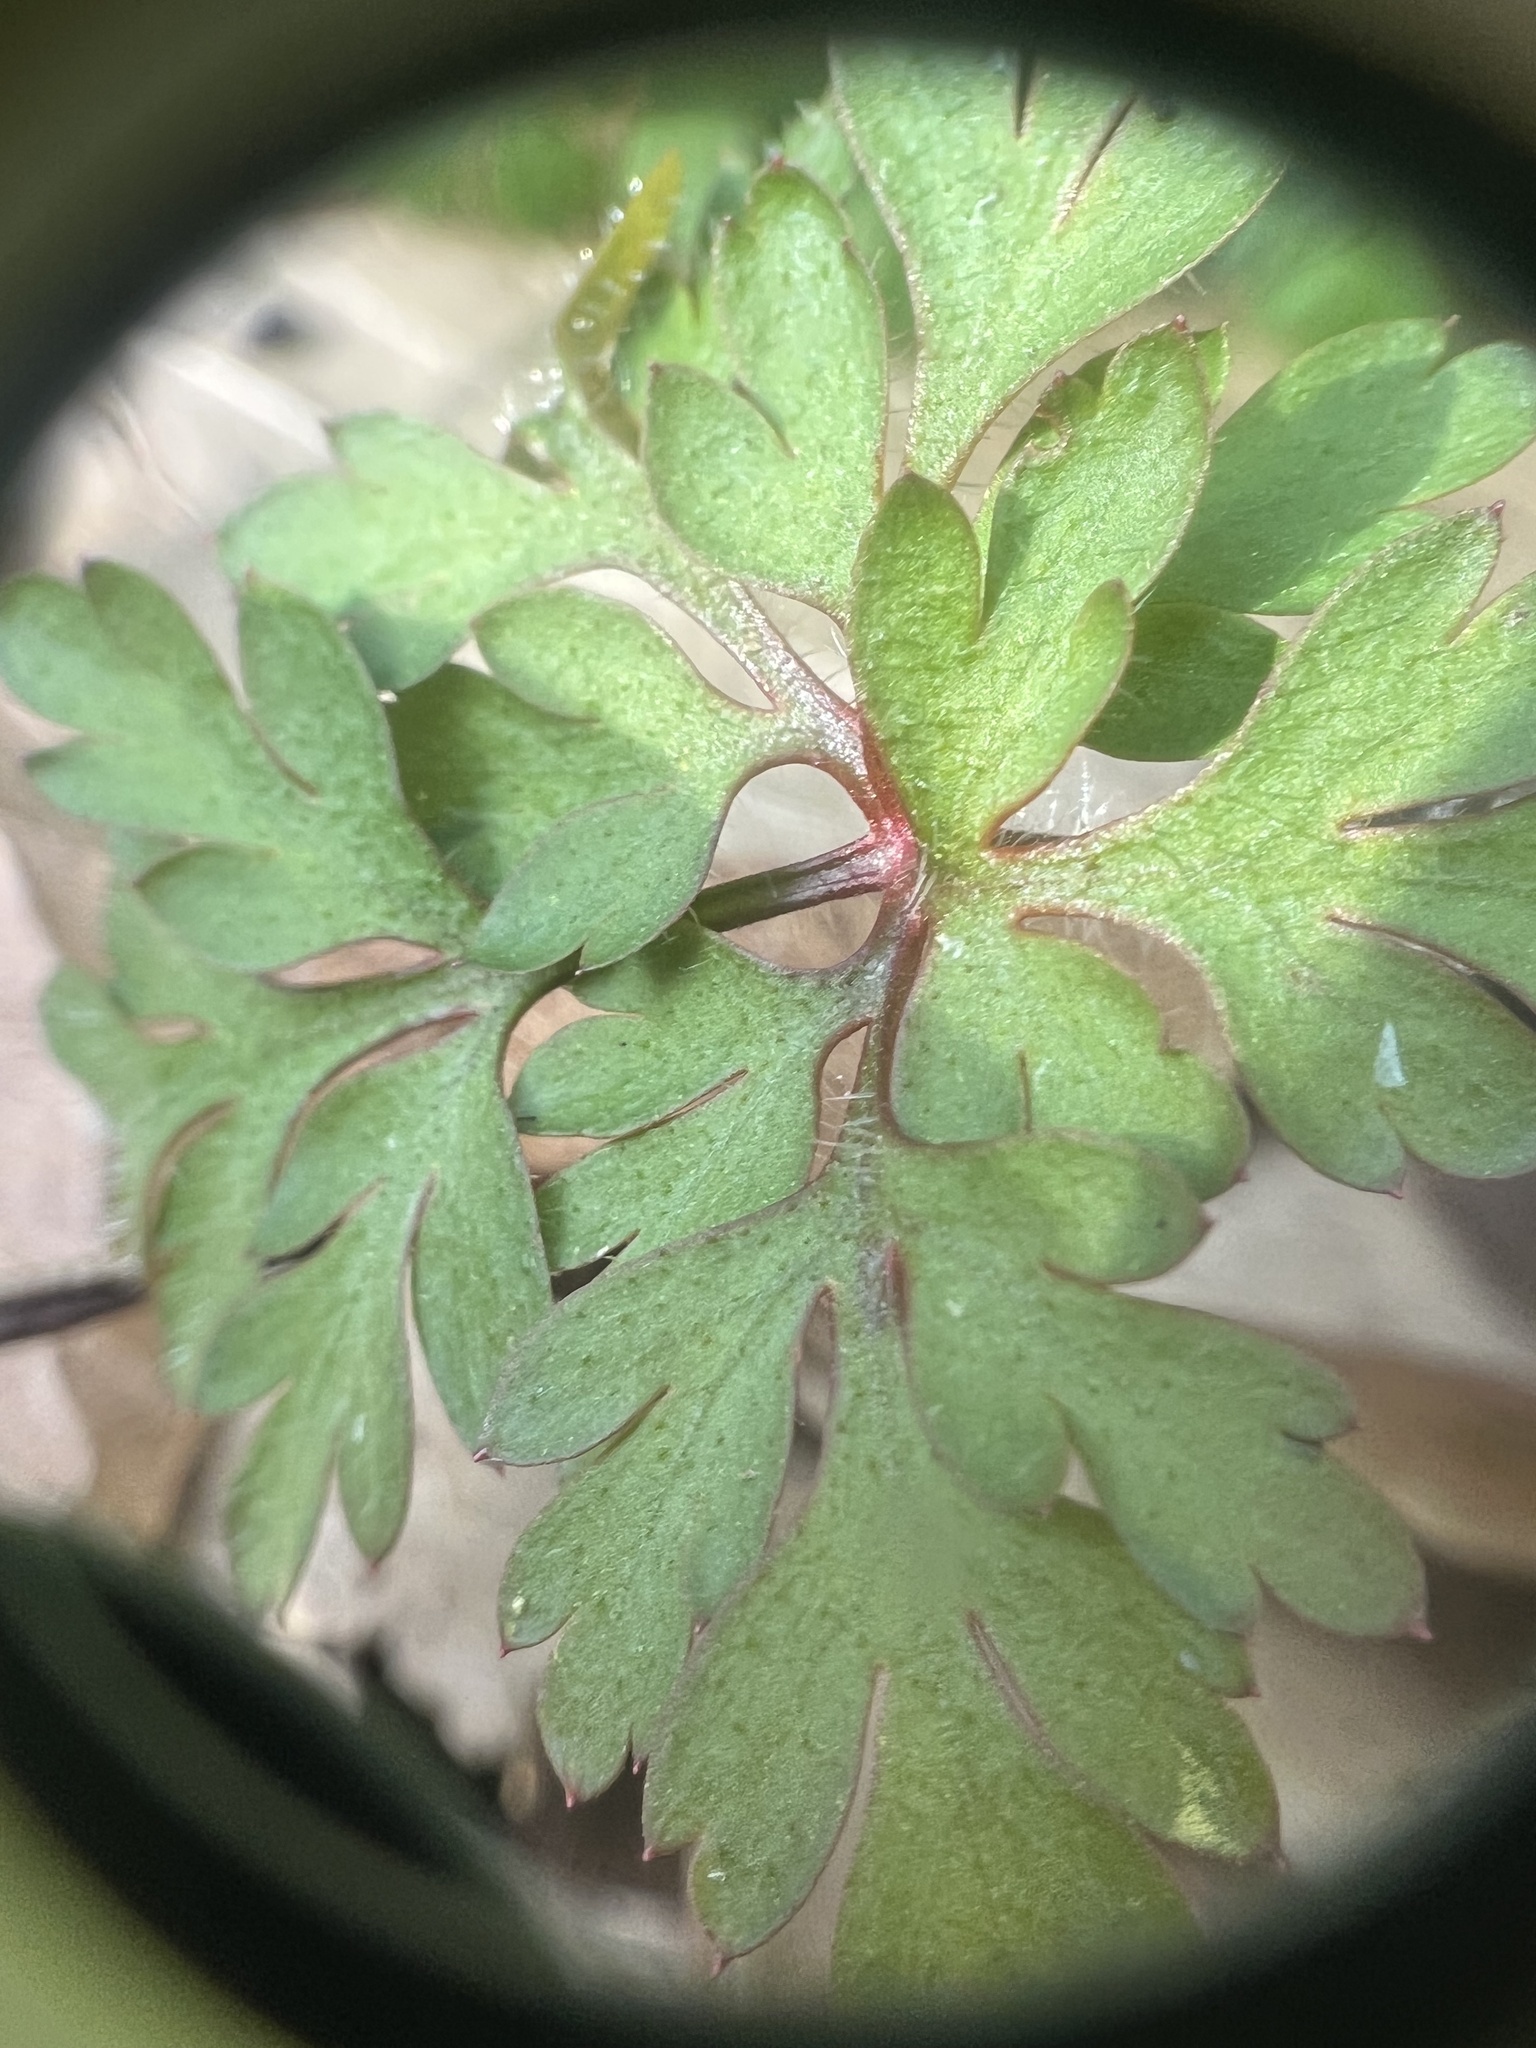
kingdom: Plantae
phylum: Tracheophyta
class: Magnoliopsida
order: Geraniales
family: Geraniaceae
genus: Geranium
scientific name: Geranium robertianum
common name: Herb-robert
